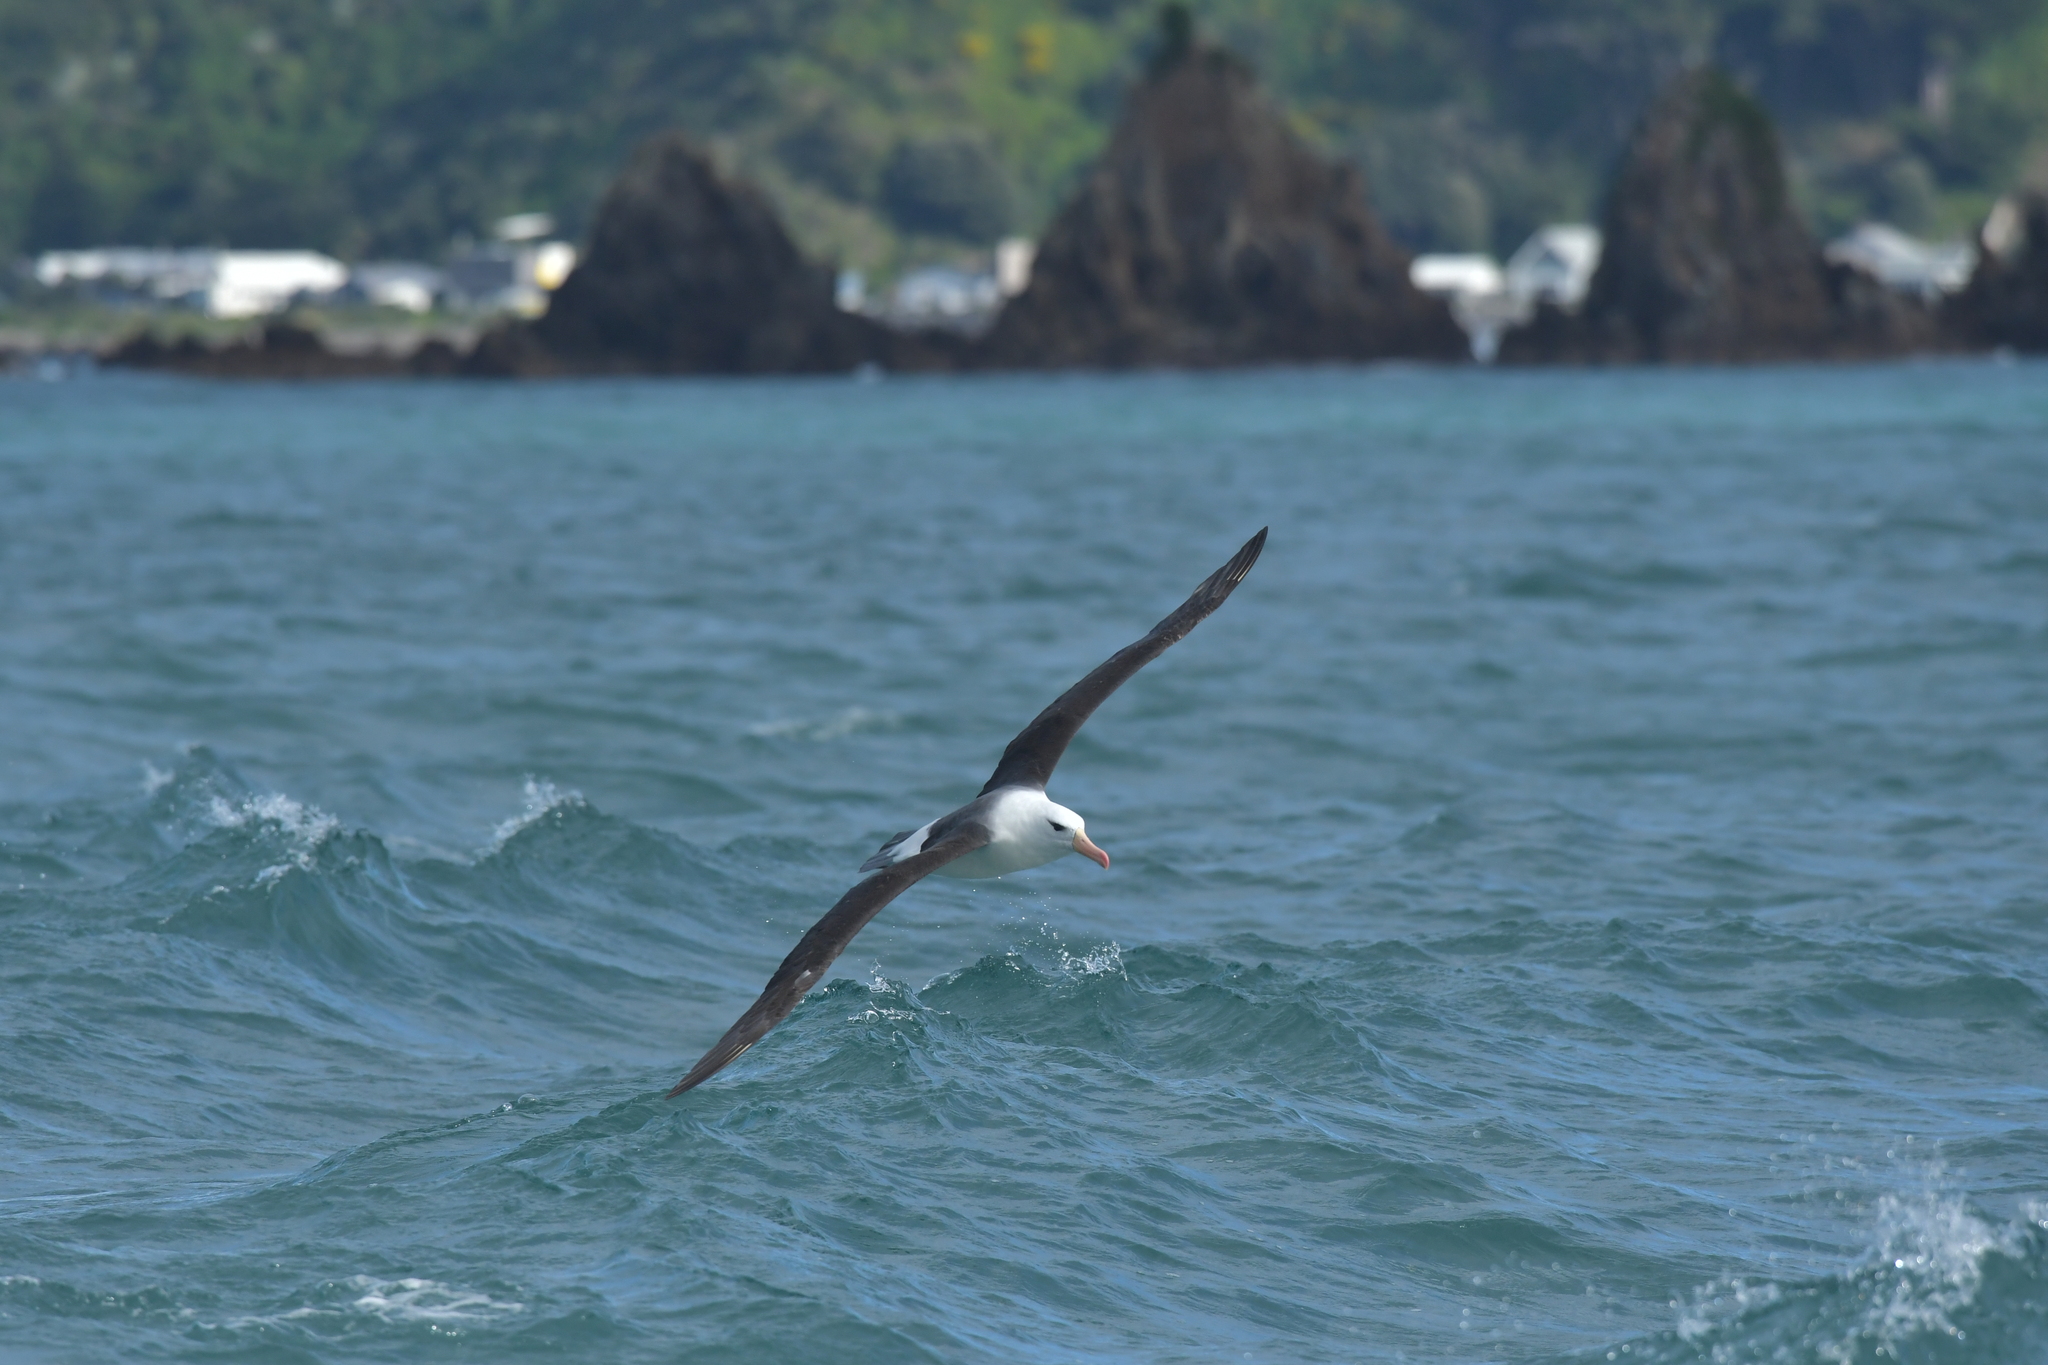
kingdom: Animalia
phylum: Chordata
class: Aves
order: Procellariiformes
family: Diomedeidae
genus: Thalassarche
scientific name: Thalassarche melanophris
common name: Black-browed albatross
